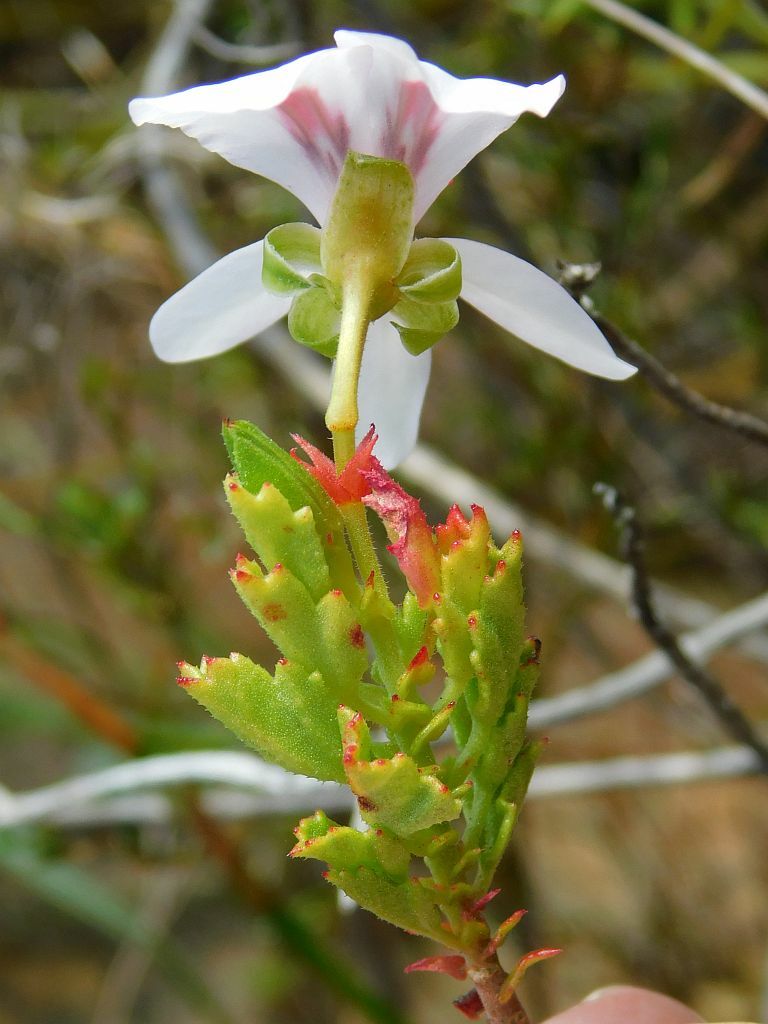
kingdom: Plantae
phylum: Tracheophyta
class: Magnoliopsida
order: Geraniales
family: Geraniaceae
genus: Pelargonium
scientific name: Pelargonium hermaniifolium
